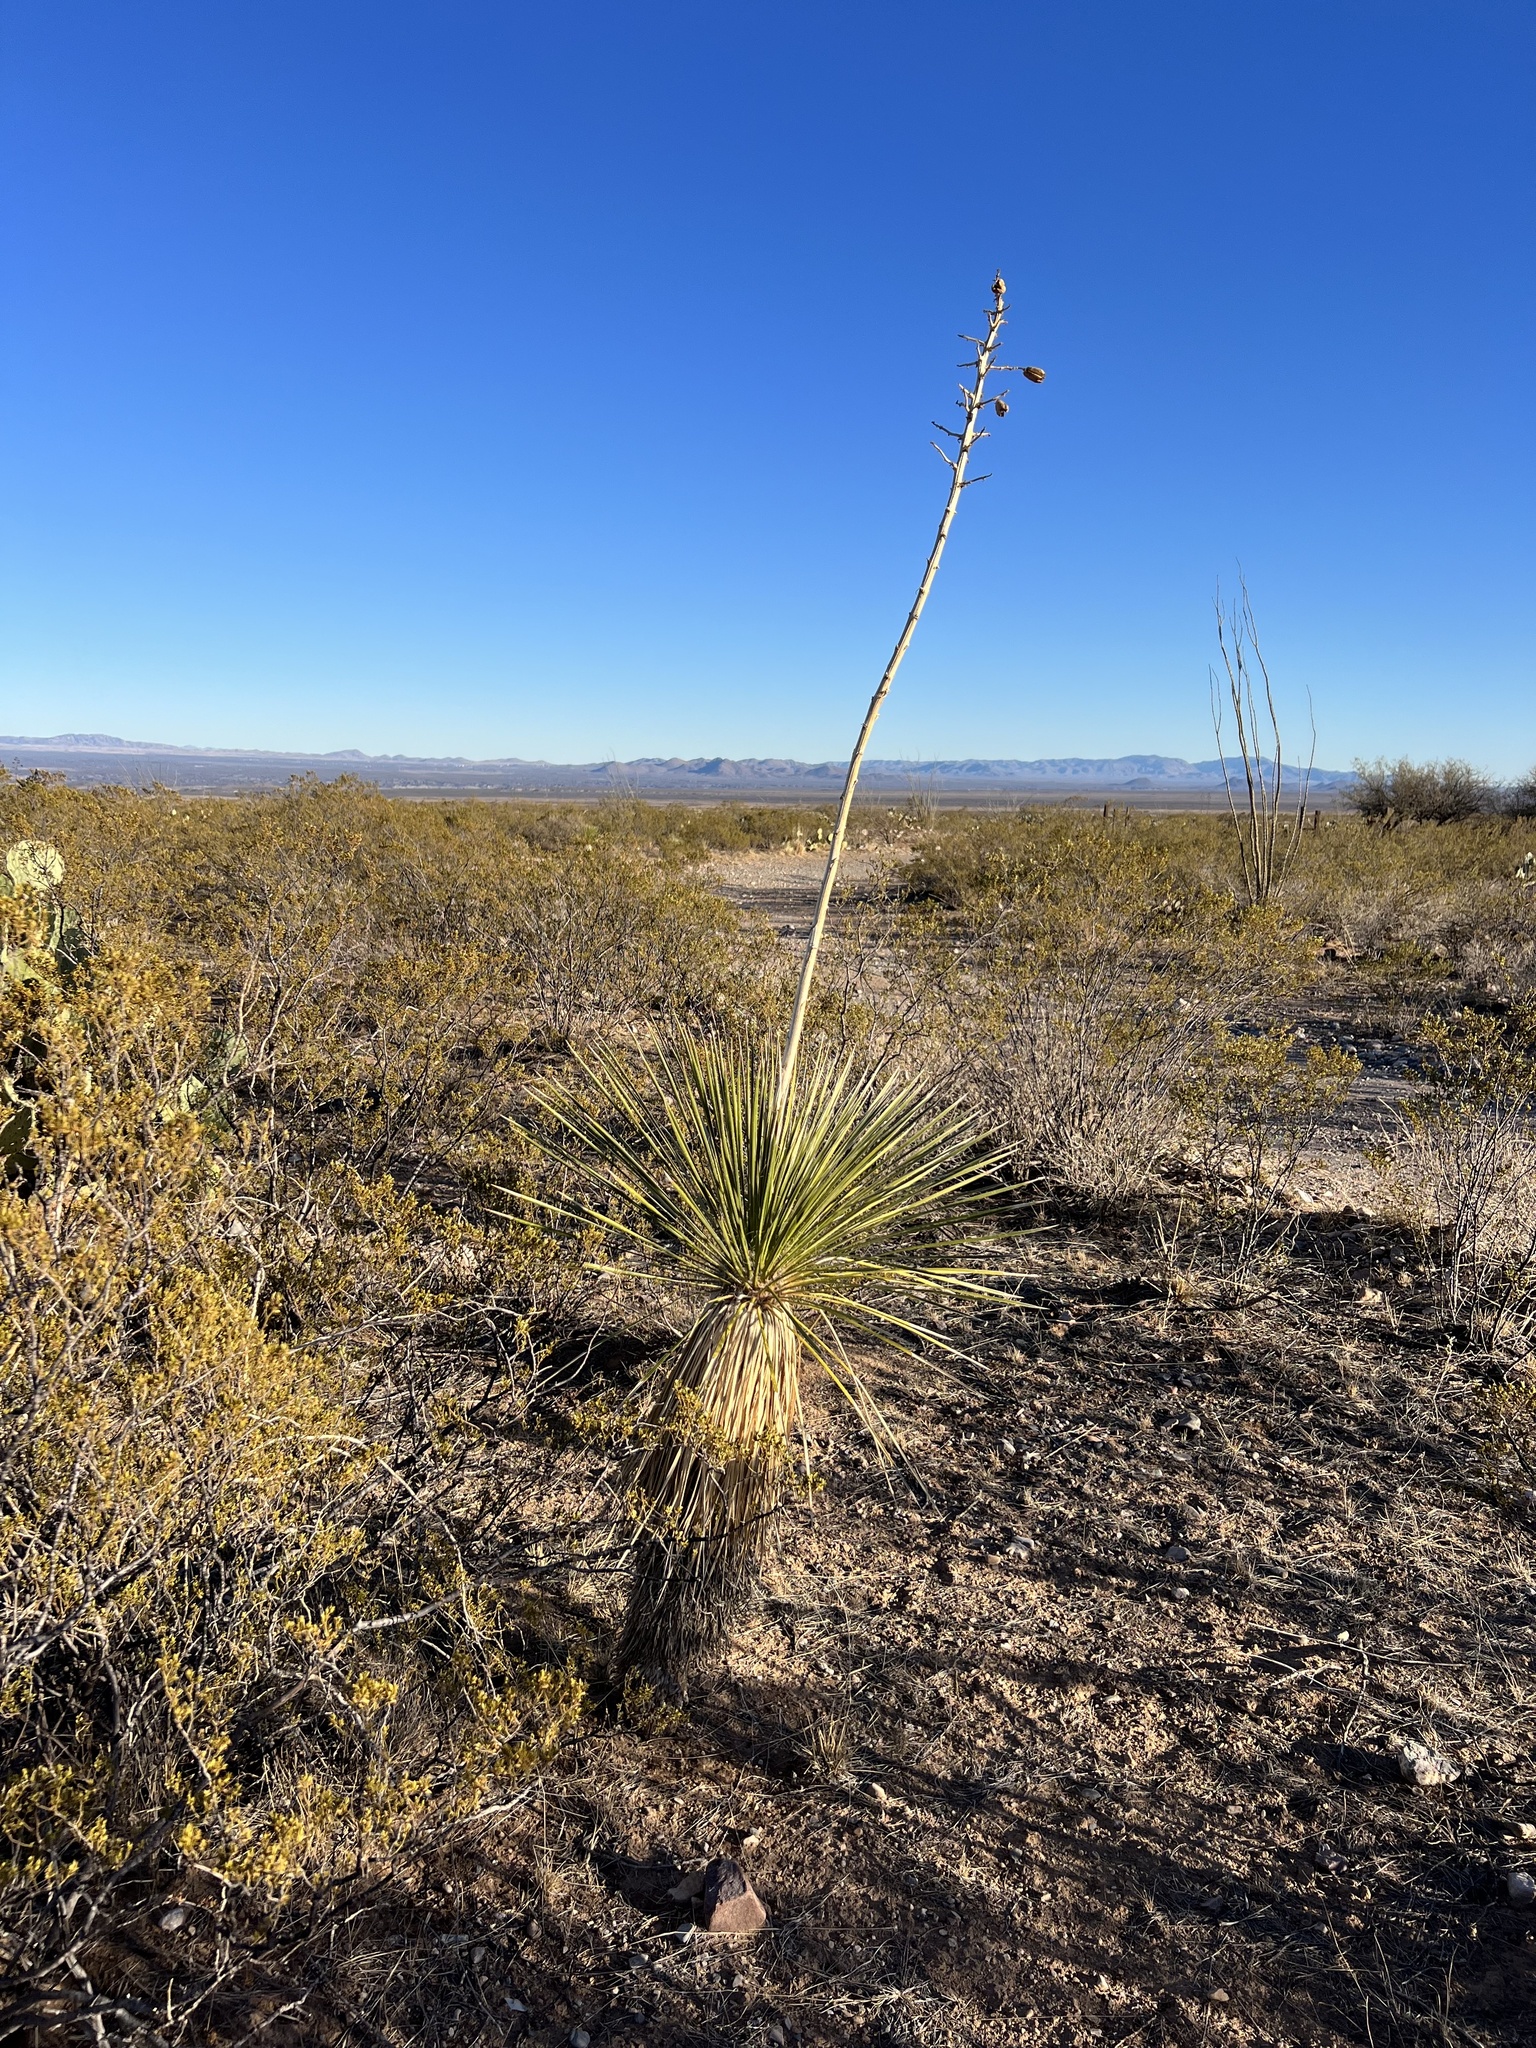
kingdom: Plantae
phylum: Tracheophyta
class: Liliopsida
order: Asparagales
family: Asparagaceae
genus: Yucca
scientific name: Yucca elata
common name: Palmella
